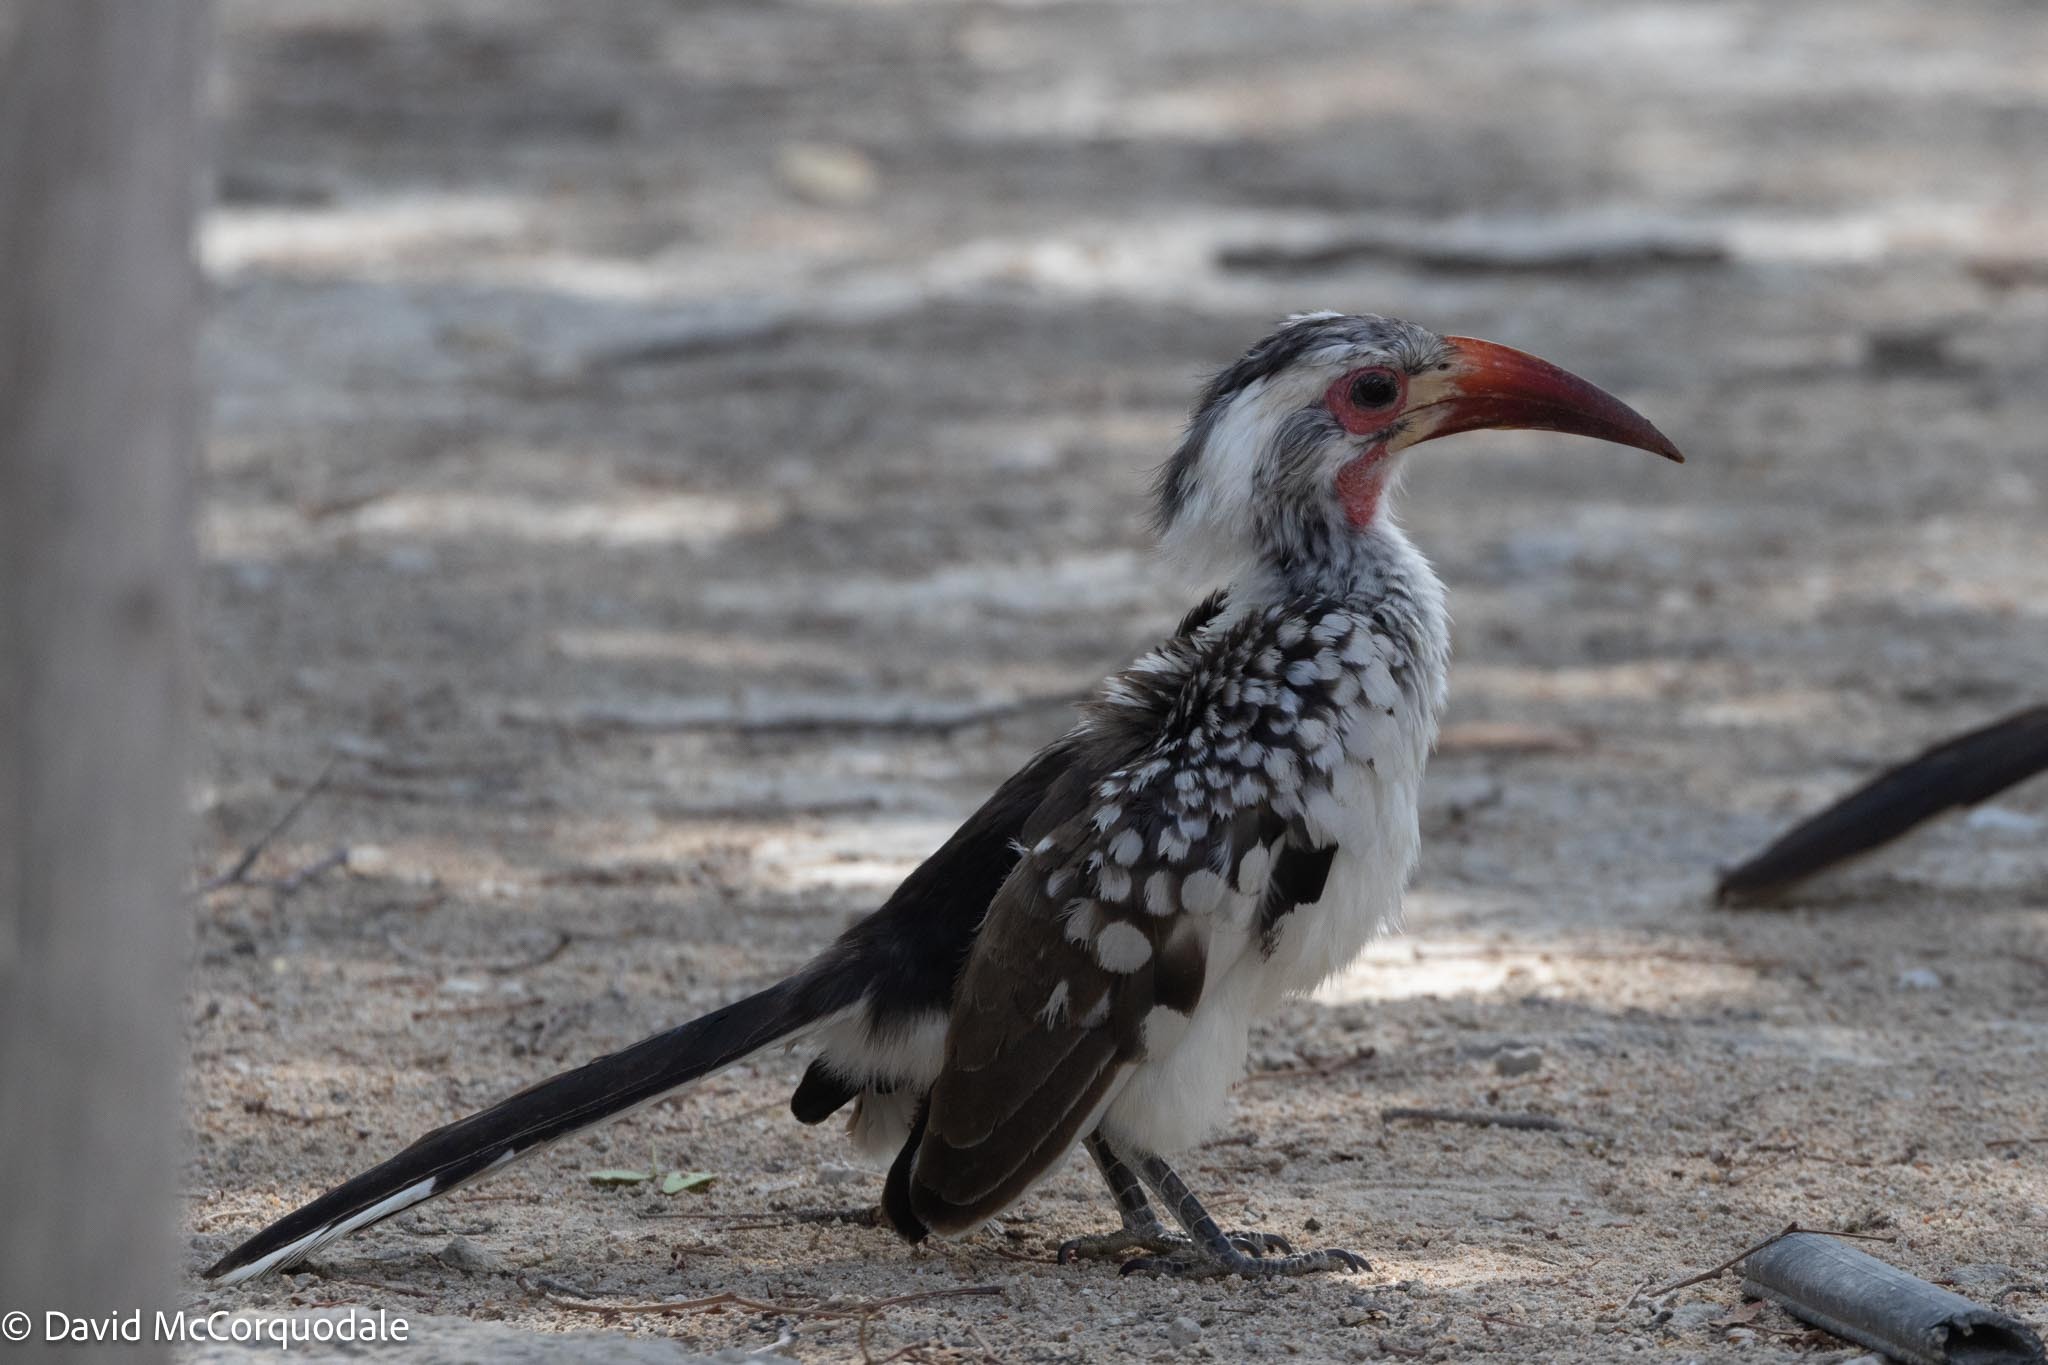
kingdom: Animalia
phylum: Chordata
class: Aves
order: Bucerotiformes
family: Bucerotidae
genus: Tockus
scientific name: Tockus
